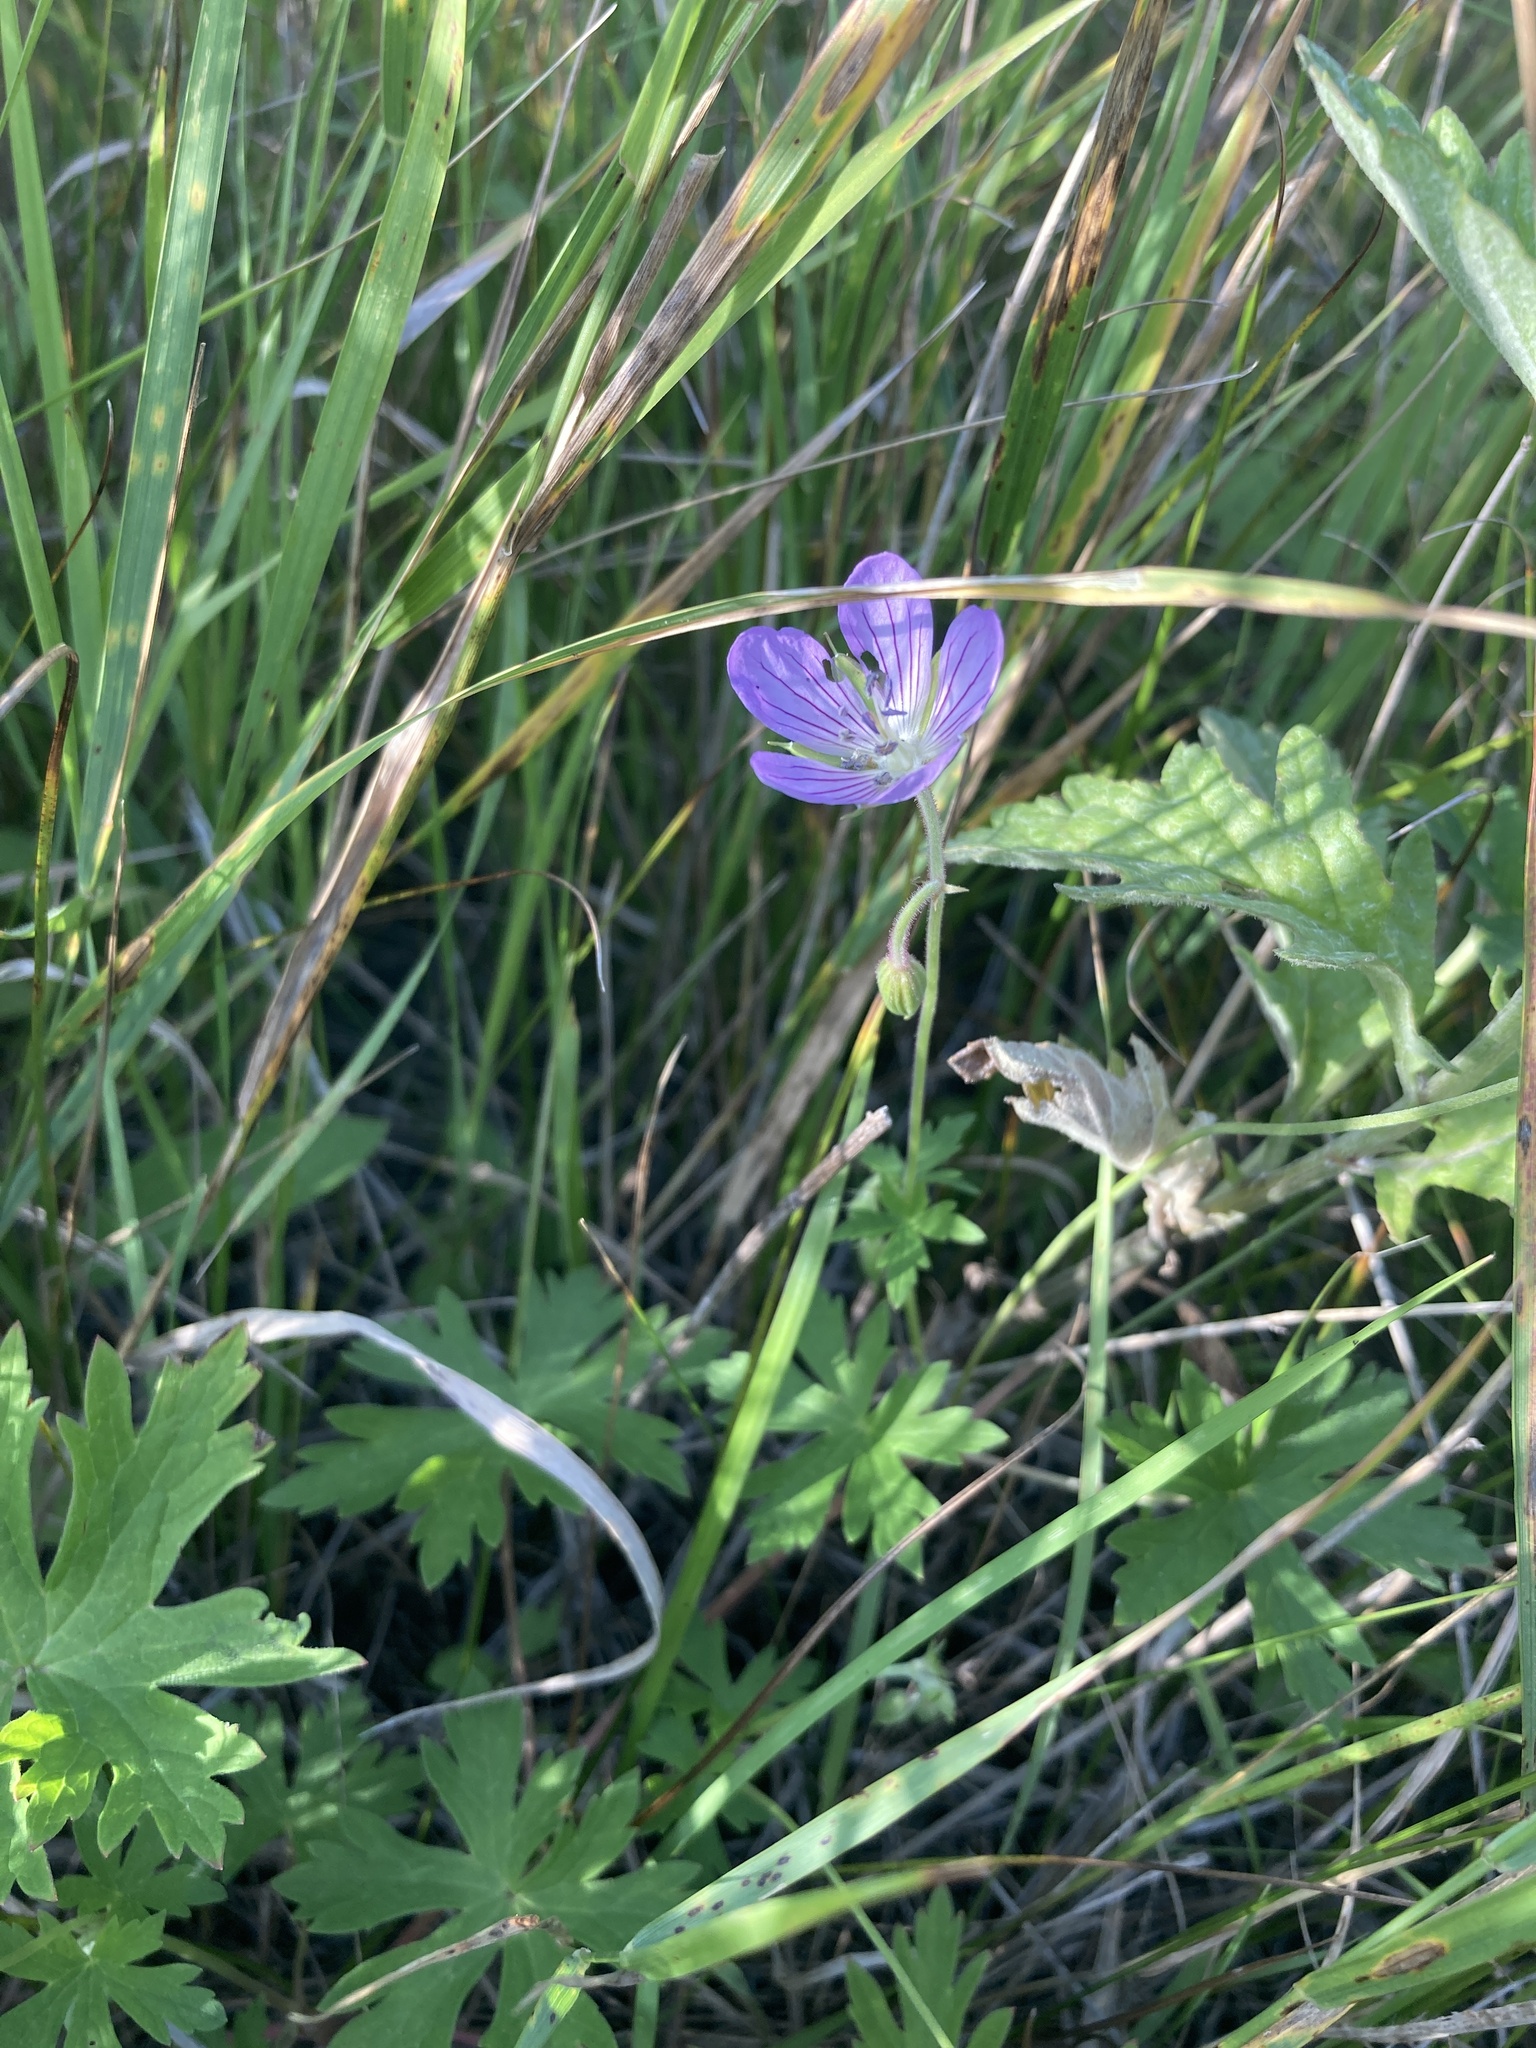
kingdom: Plantae
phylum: Tracheophyta
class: Magnoliopsida
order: Geraniales
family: Geraniaceae
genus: Geranium
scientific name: Geranium collinum
